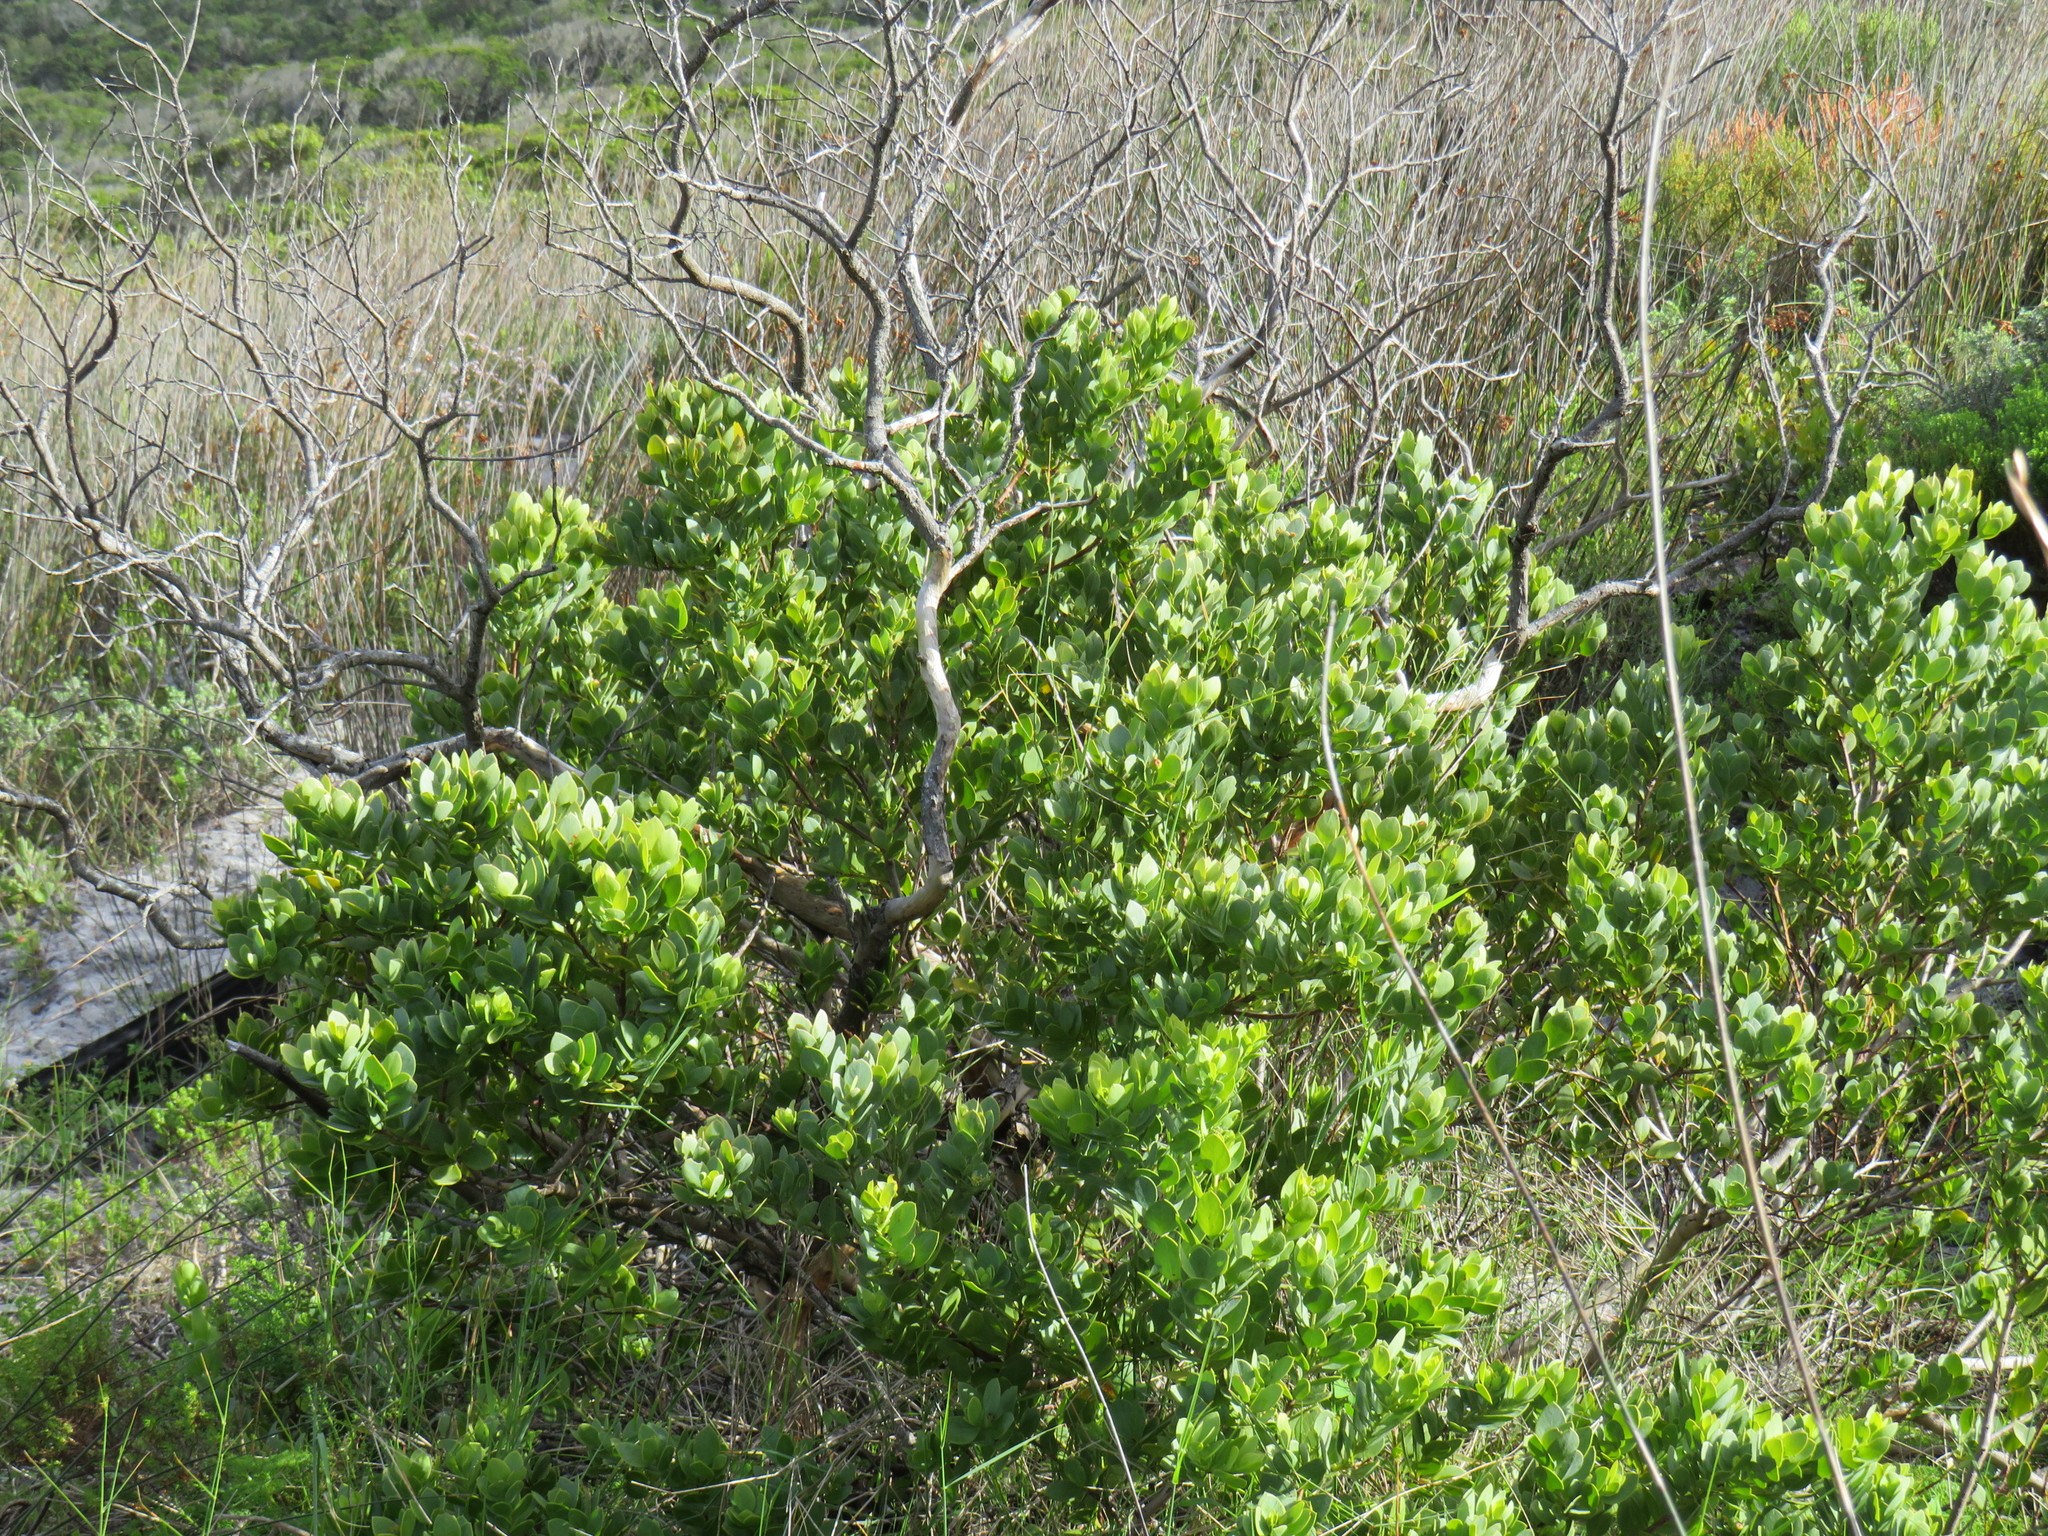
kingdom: Plantae
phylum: Tracheophyta
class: Magnoliopsida
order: Santalales
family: Santalaceae
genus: Osyris
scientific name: Osyris compressa
